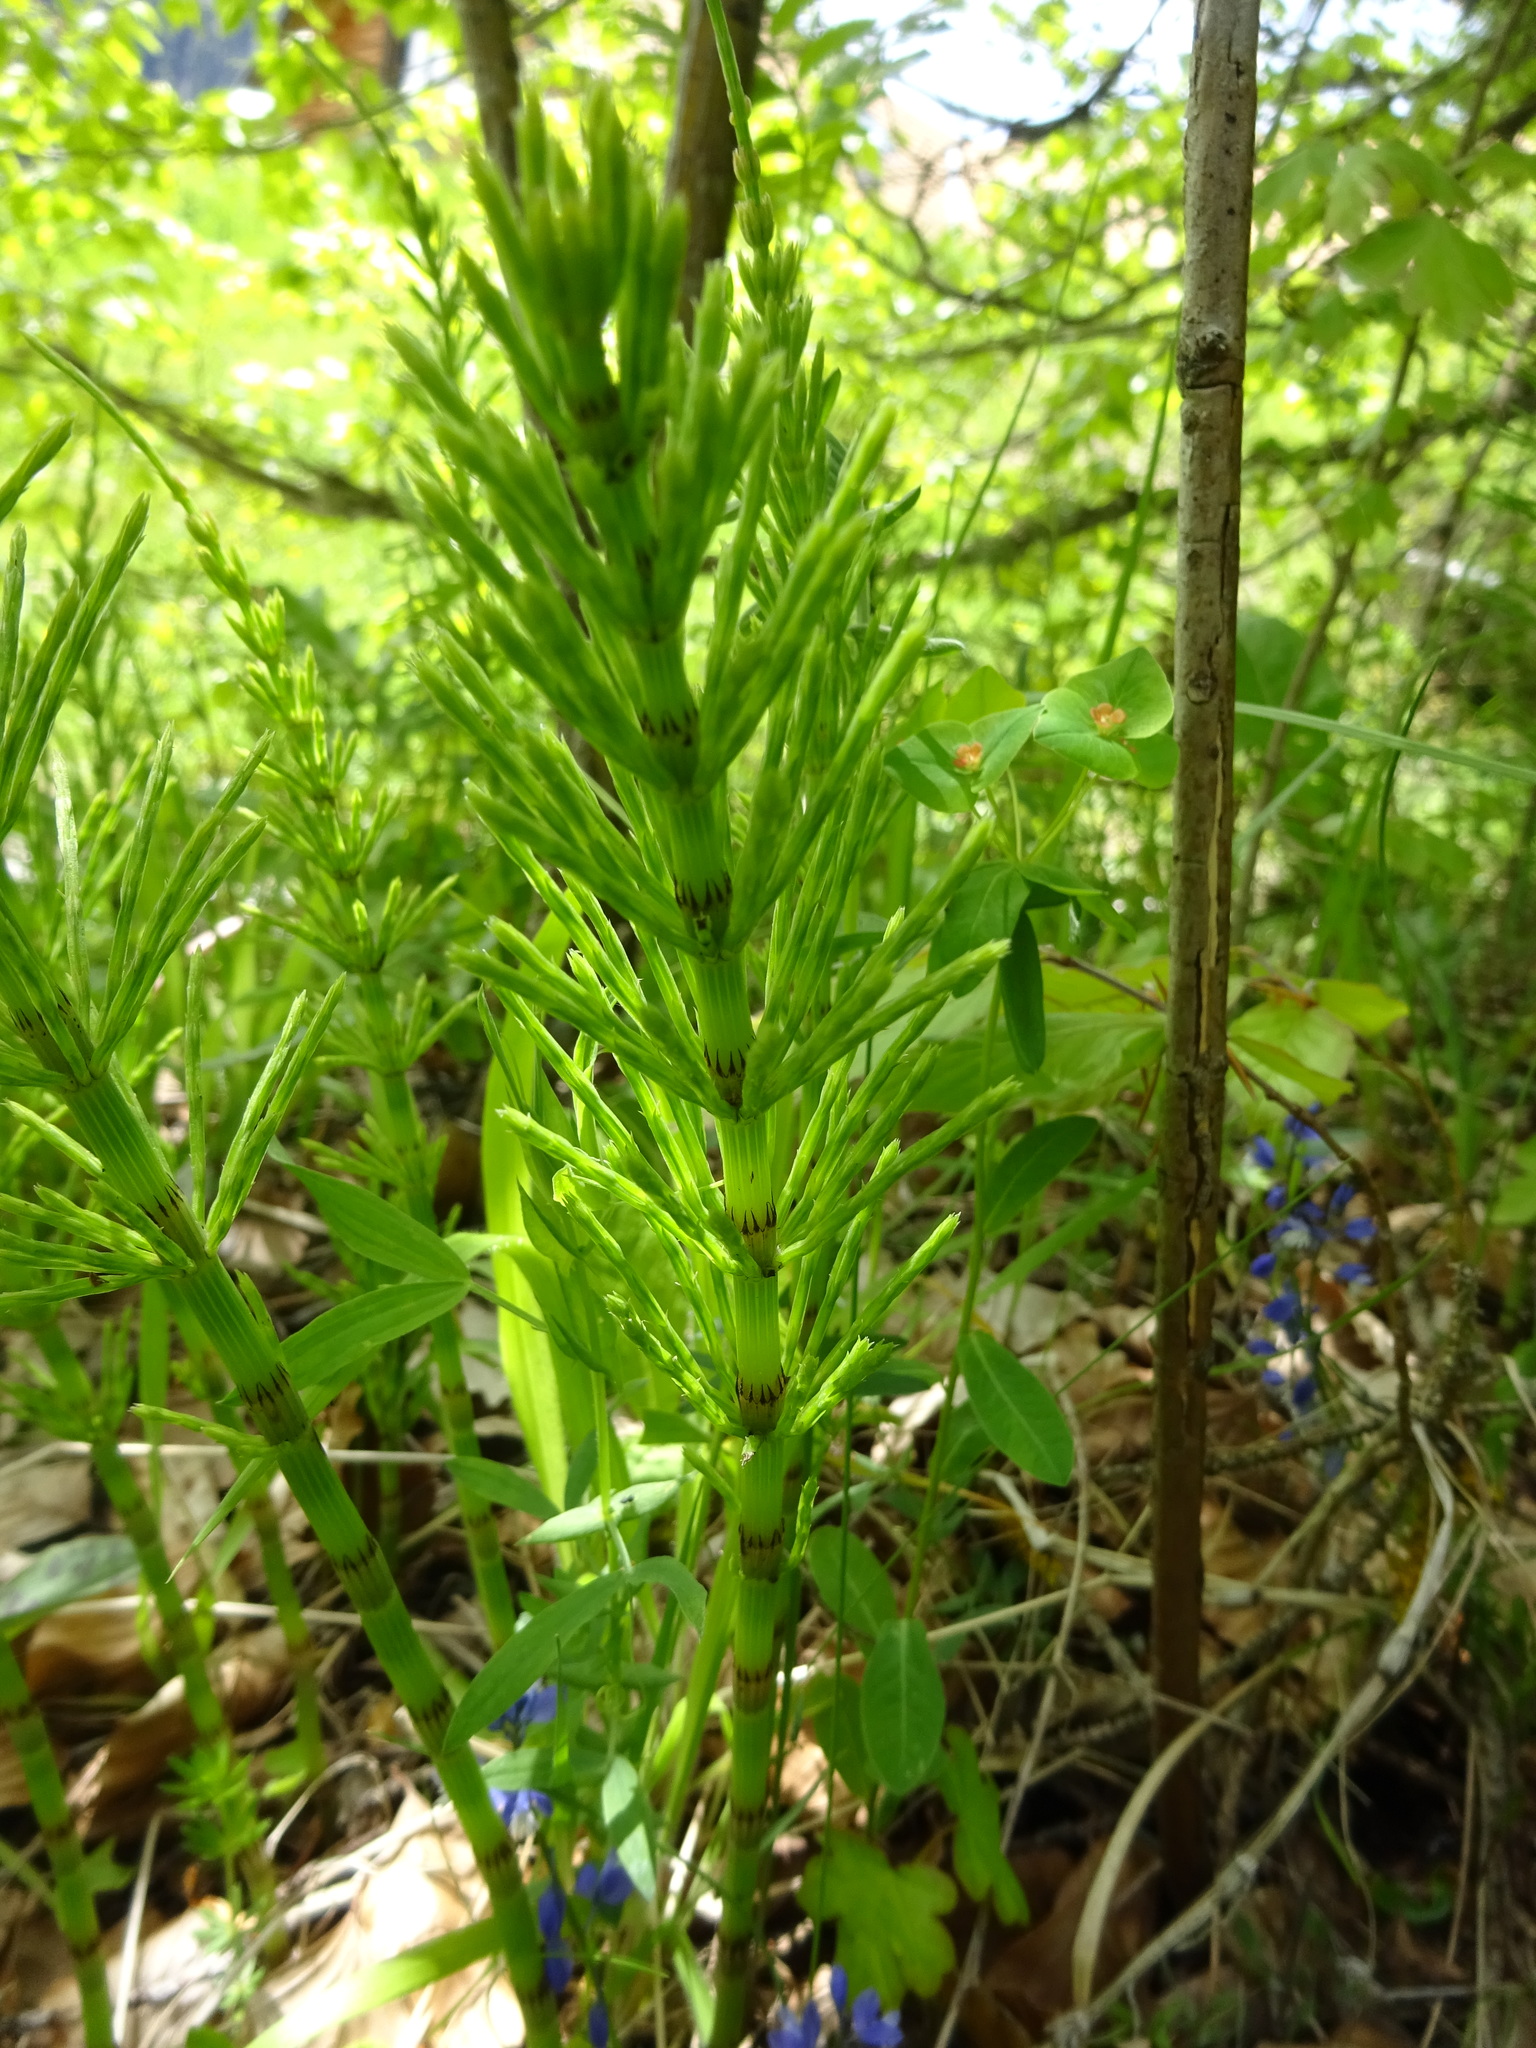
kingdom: Plantae
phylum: Tracheophyta
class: Polypodiopsida
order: Equisetales
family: Equisetaceae
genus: Equisetum
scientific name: Equisetum arvense
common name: Field horsetail
